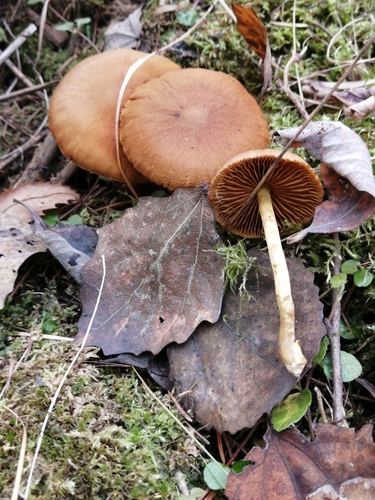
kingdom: Fungi
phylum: Basidiomycota
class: Agaricomycetes
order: Agaricales
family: Cortinariaceae
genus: Cortinarius
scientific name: Cortinarius
